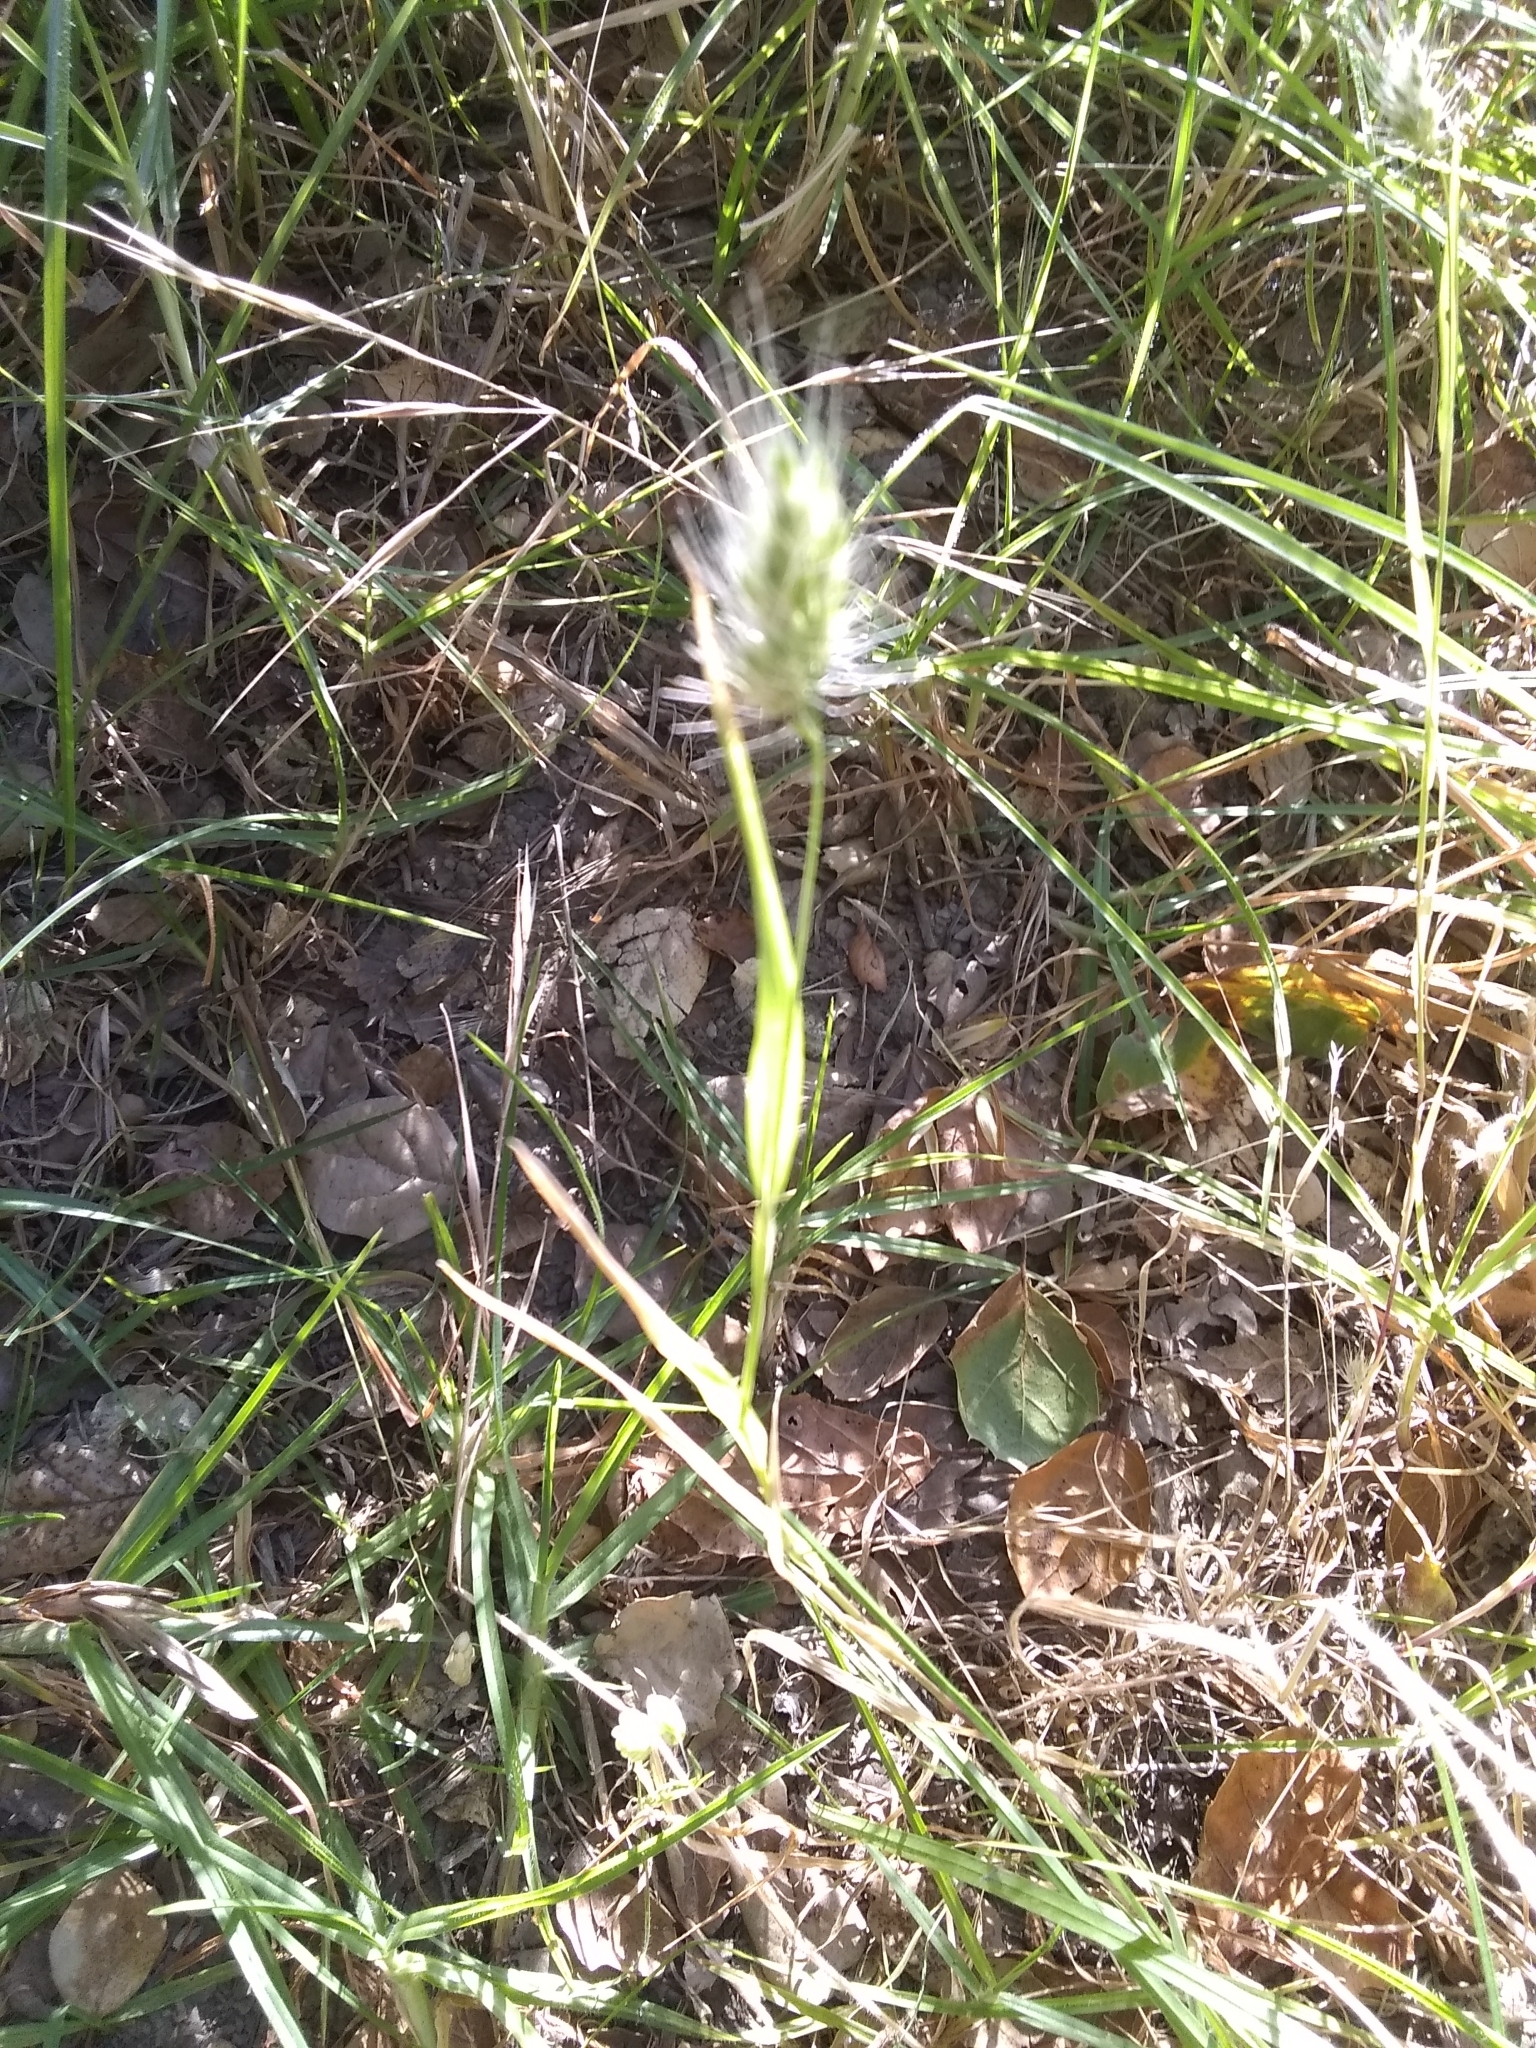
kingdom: Plantae
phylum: Tracheophyta
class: Liliopsida
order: Poales
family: Poaceae
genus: Cynosurus
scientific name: Cynosurus echinatus
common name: Rough dog's-tail
